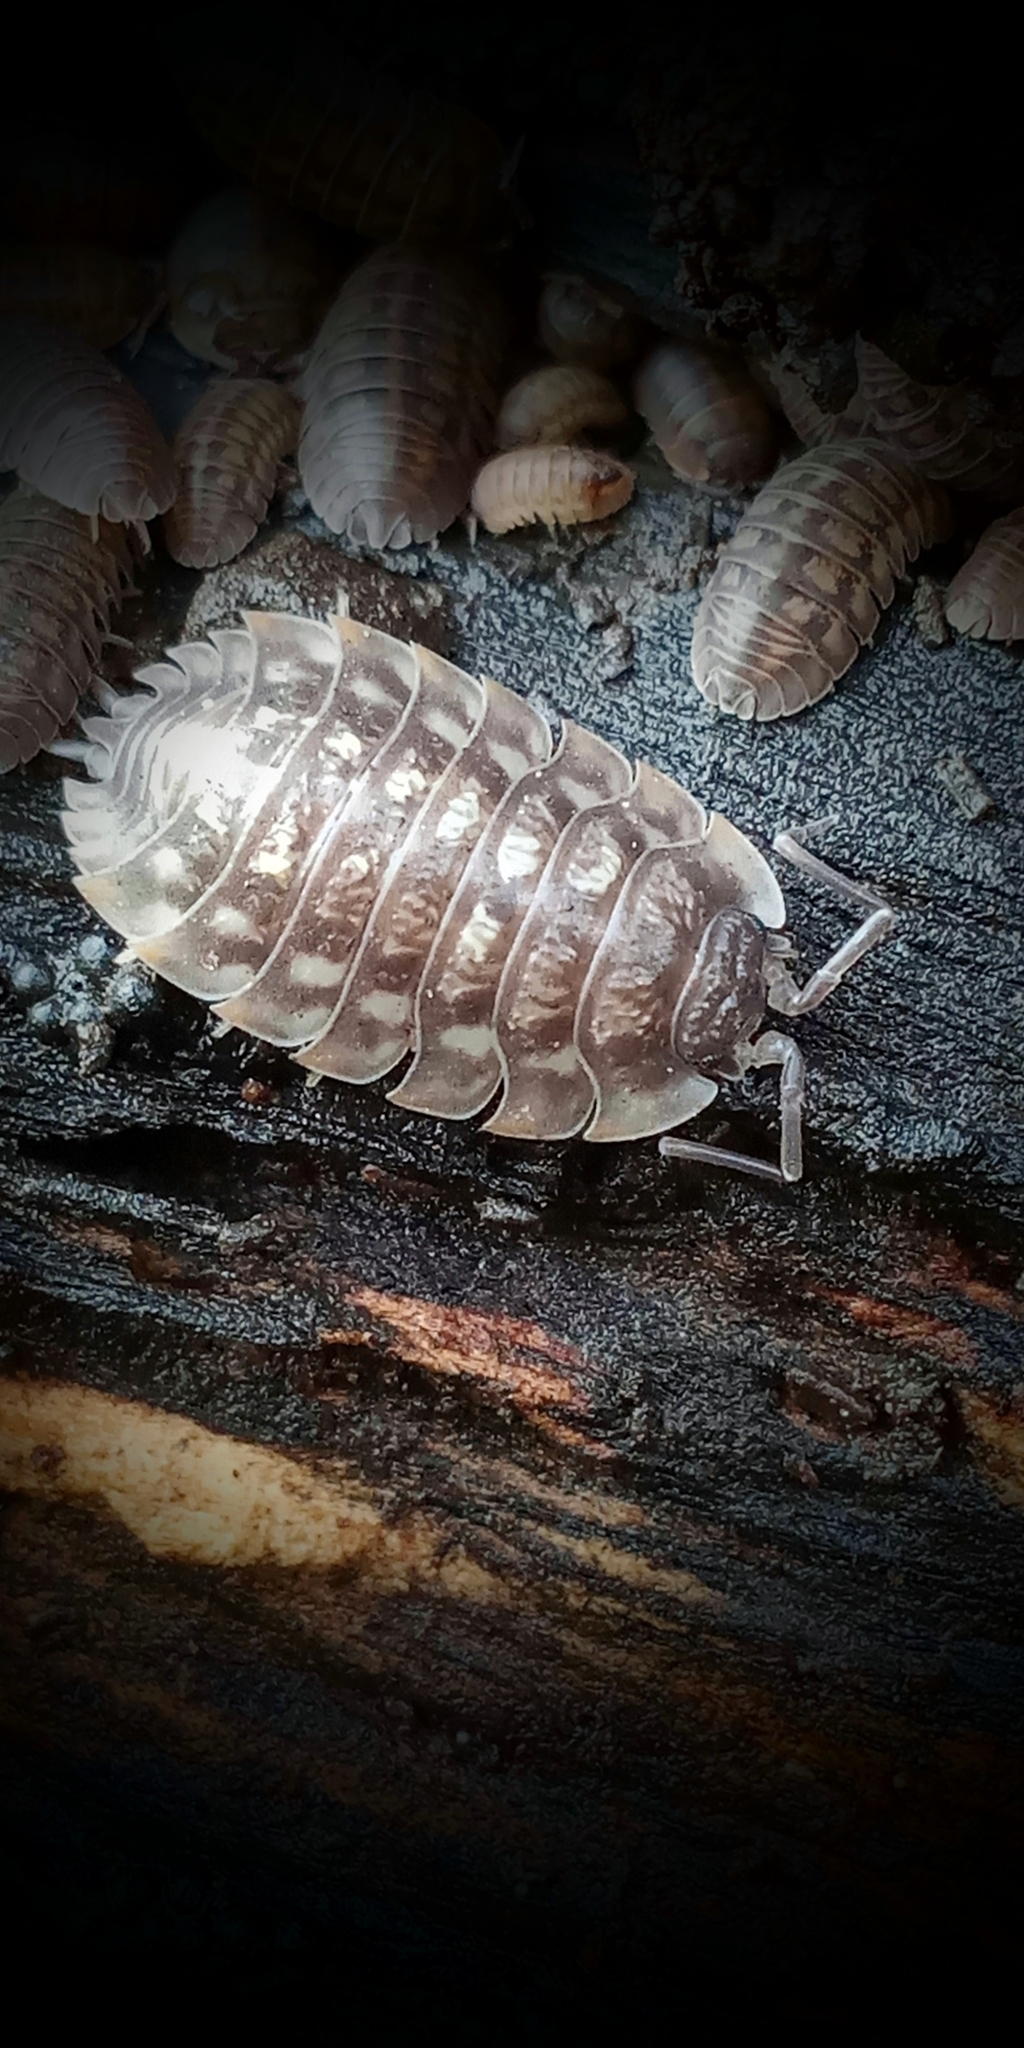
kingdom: Animalia
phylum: Arthropoda
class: Malacostraca
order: Isopoda
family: Oniscidae
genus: Oniscus
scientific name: Oniscus asellus
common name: Common shiny woodlouse
